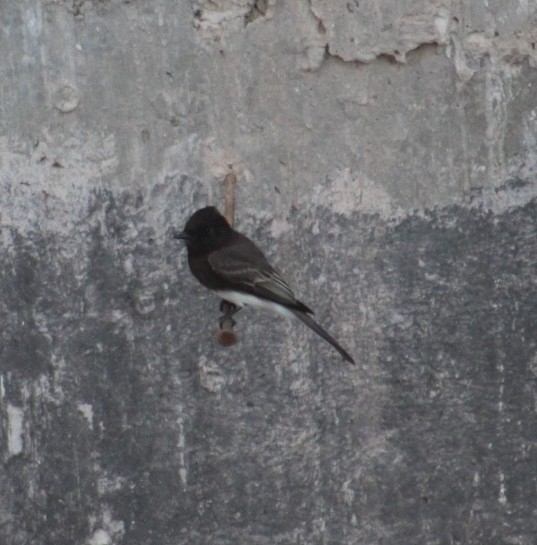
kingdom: Animalia
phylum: Chordata
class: Aves
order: Passeriformes
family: Tyrannidae
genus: Sayornis
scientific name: Sayornis nigricans
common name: Black phoebe
